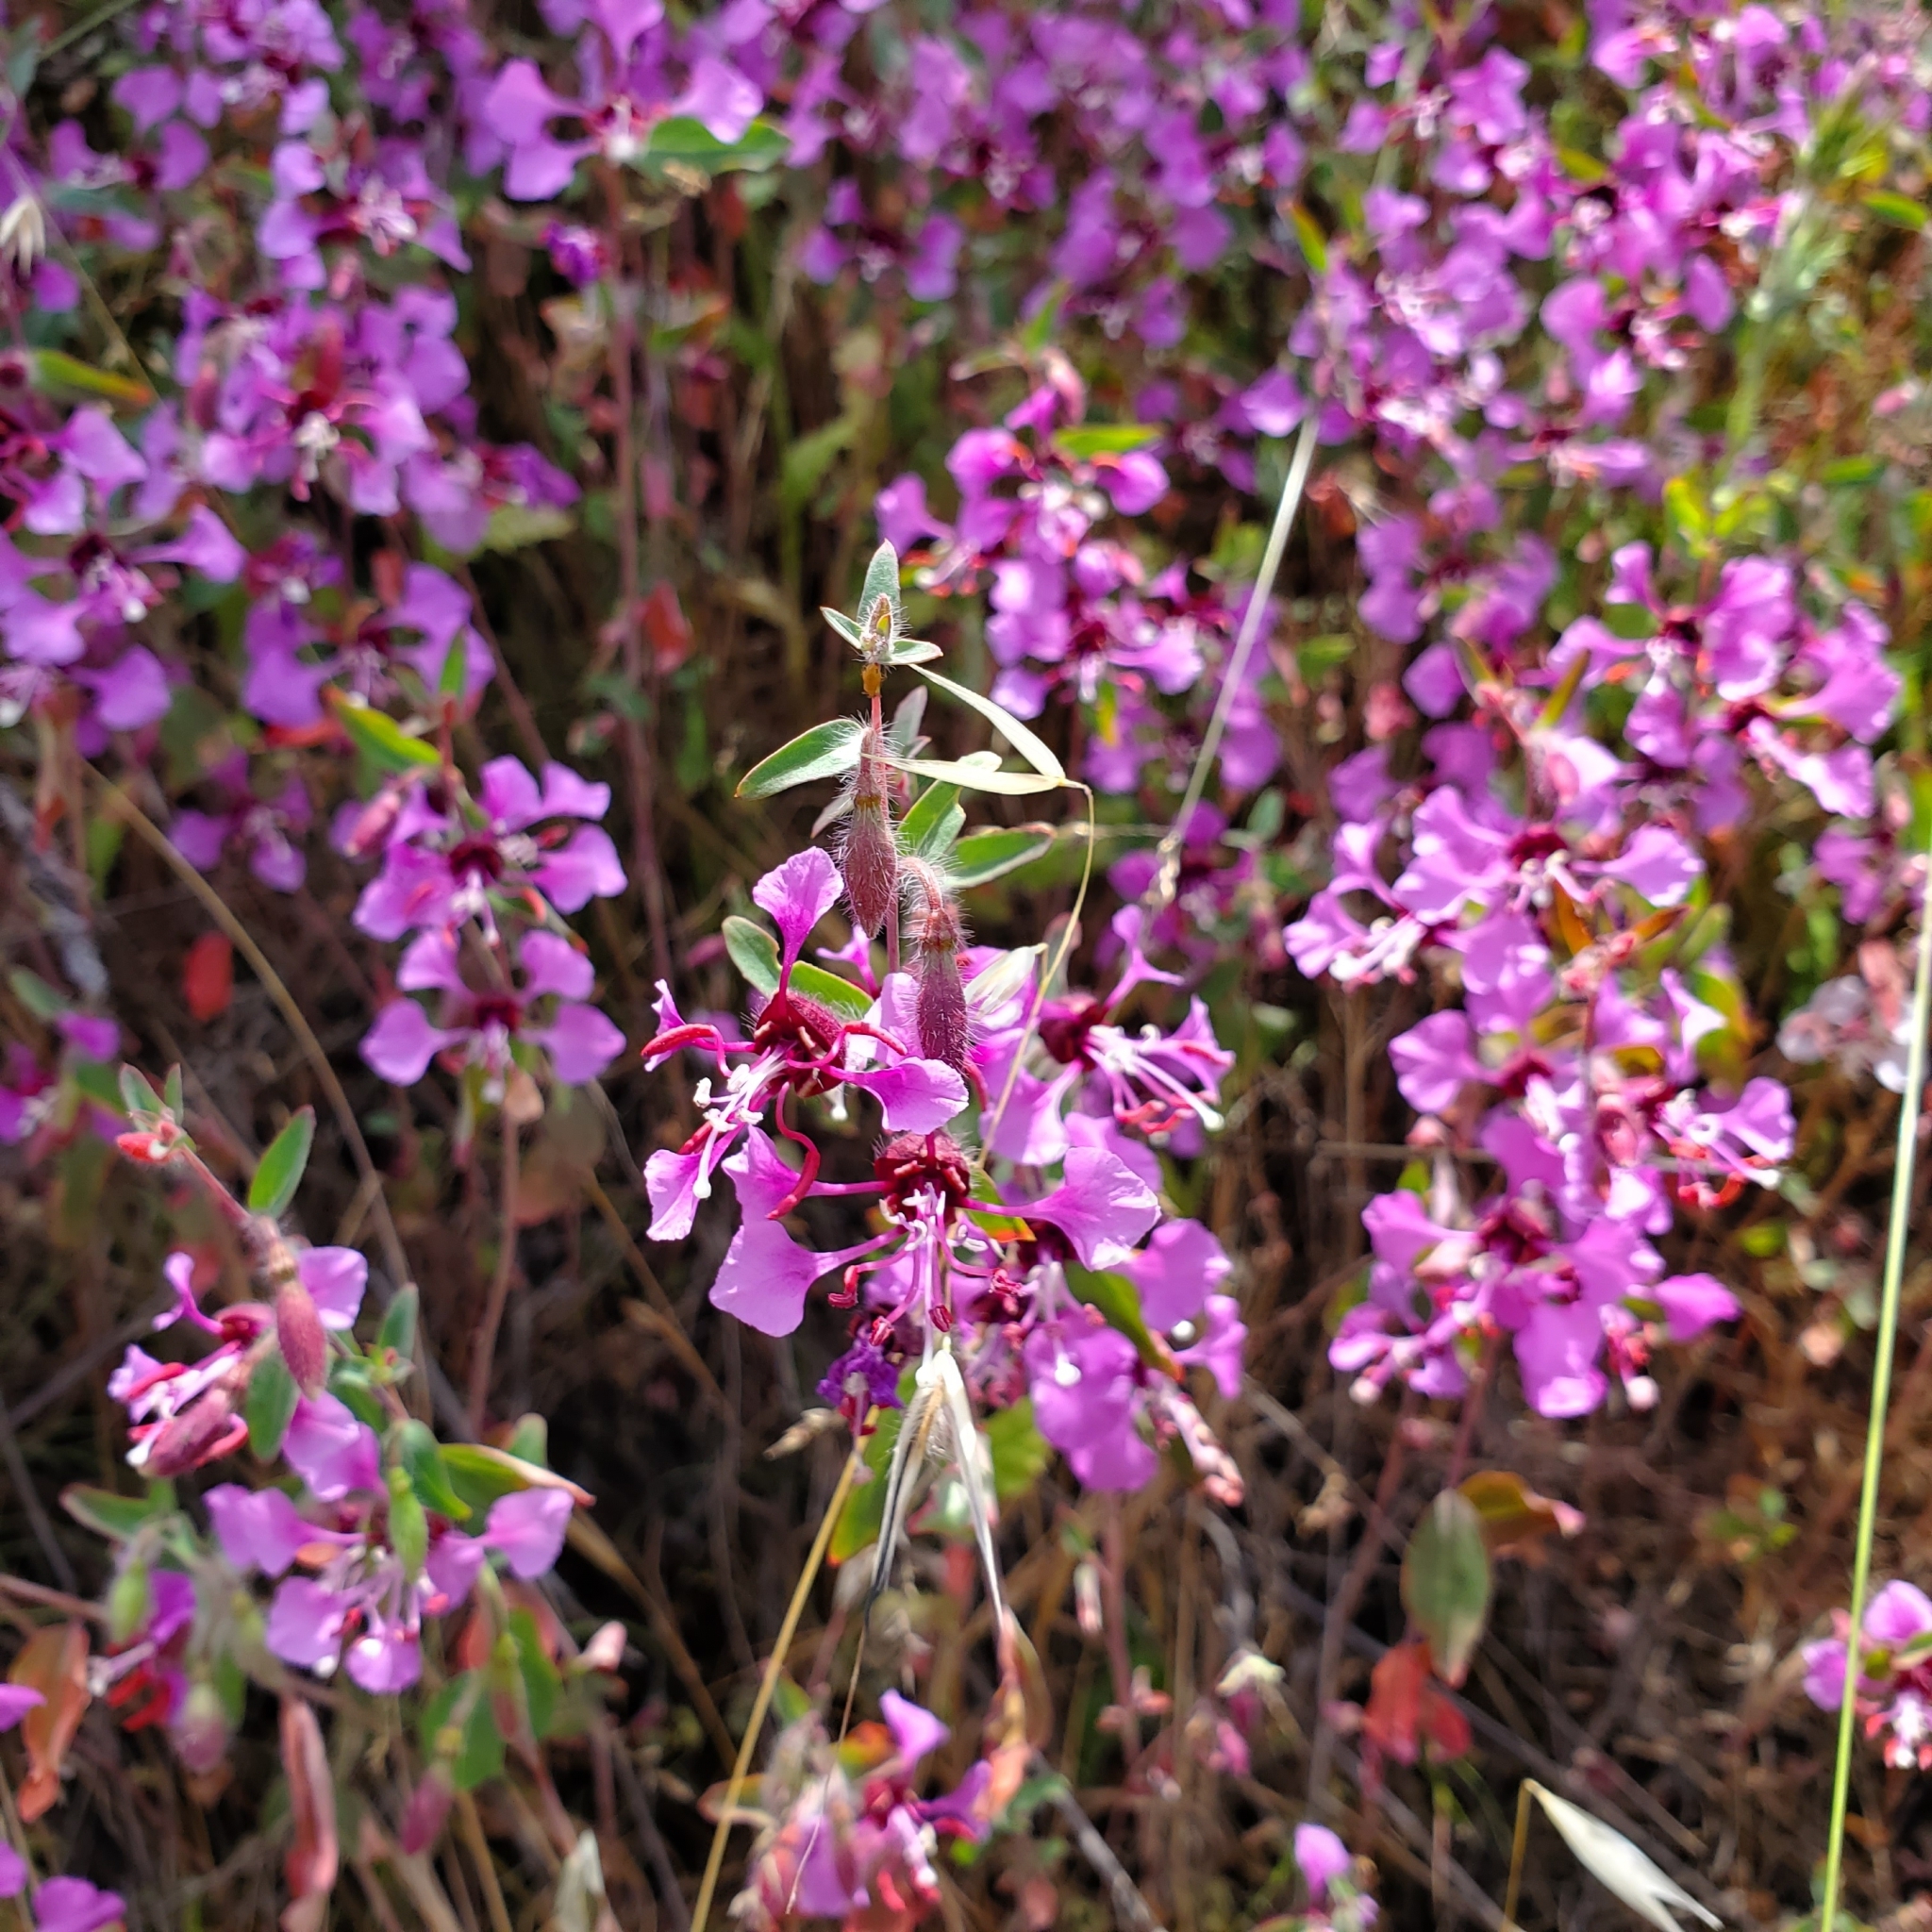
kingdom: Plantae
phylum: Tracheophyta
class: Magnoliopsida
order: Myrtales
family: Onagraceae
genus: Clarkia
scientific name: Clarkia unguiculata
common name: Clarkia
